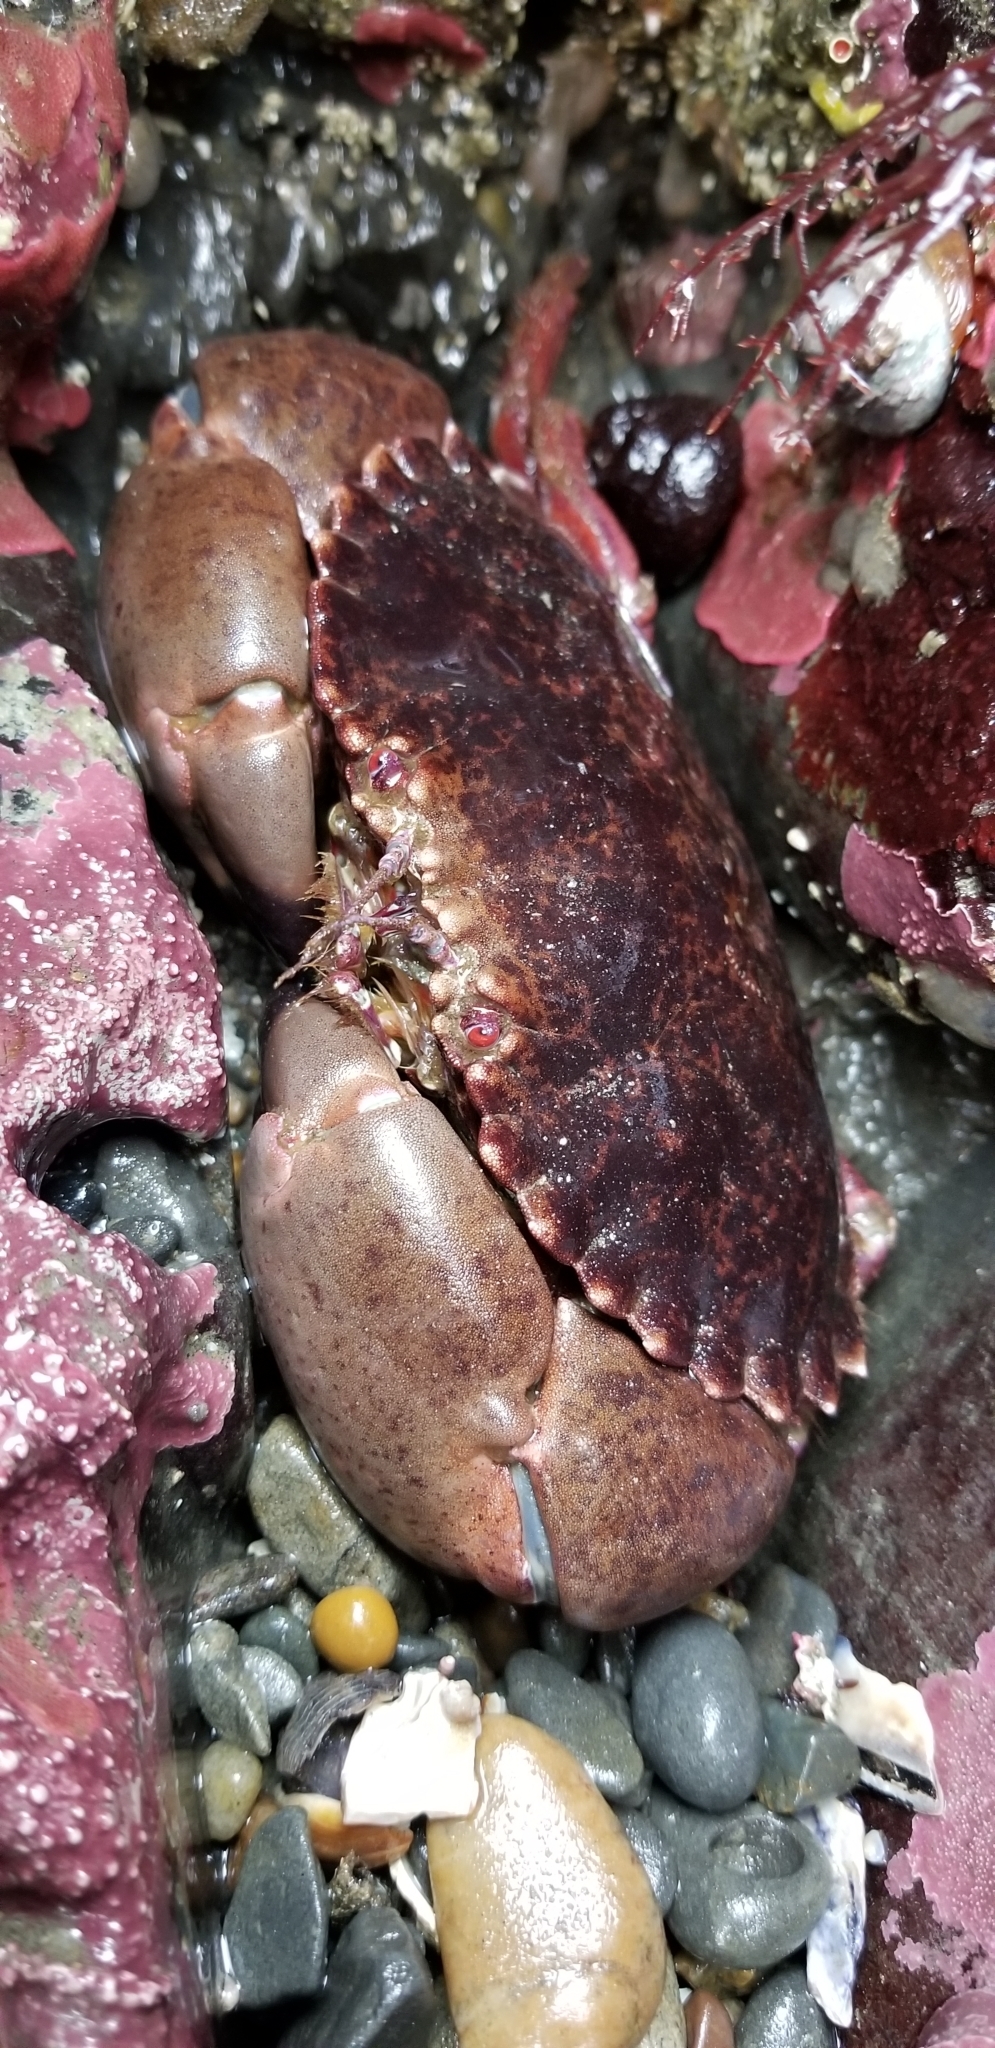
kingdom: Animalia
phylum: Arthropoda
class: Malacostraca
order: Decapoda
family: Cancridae
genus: Romaleon
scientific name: Romaleon antennarium
